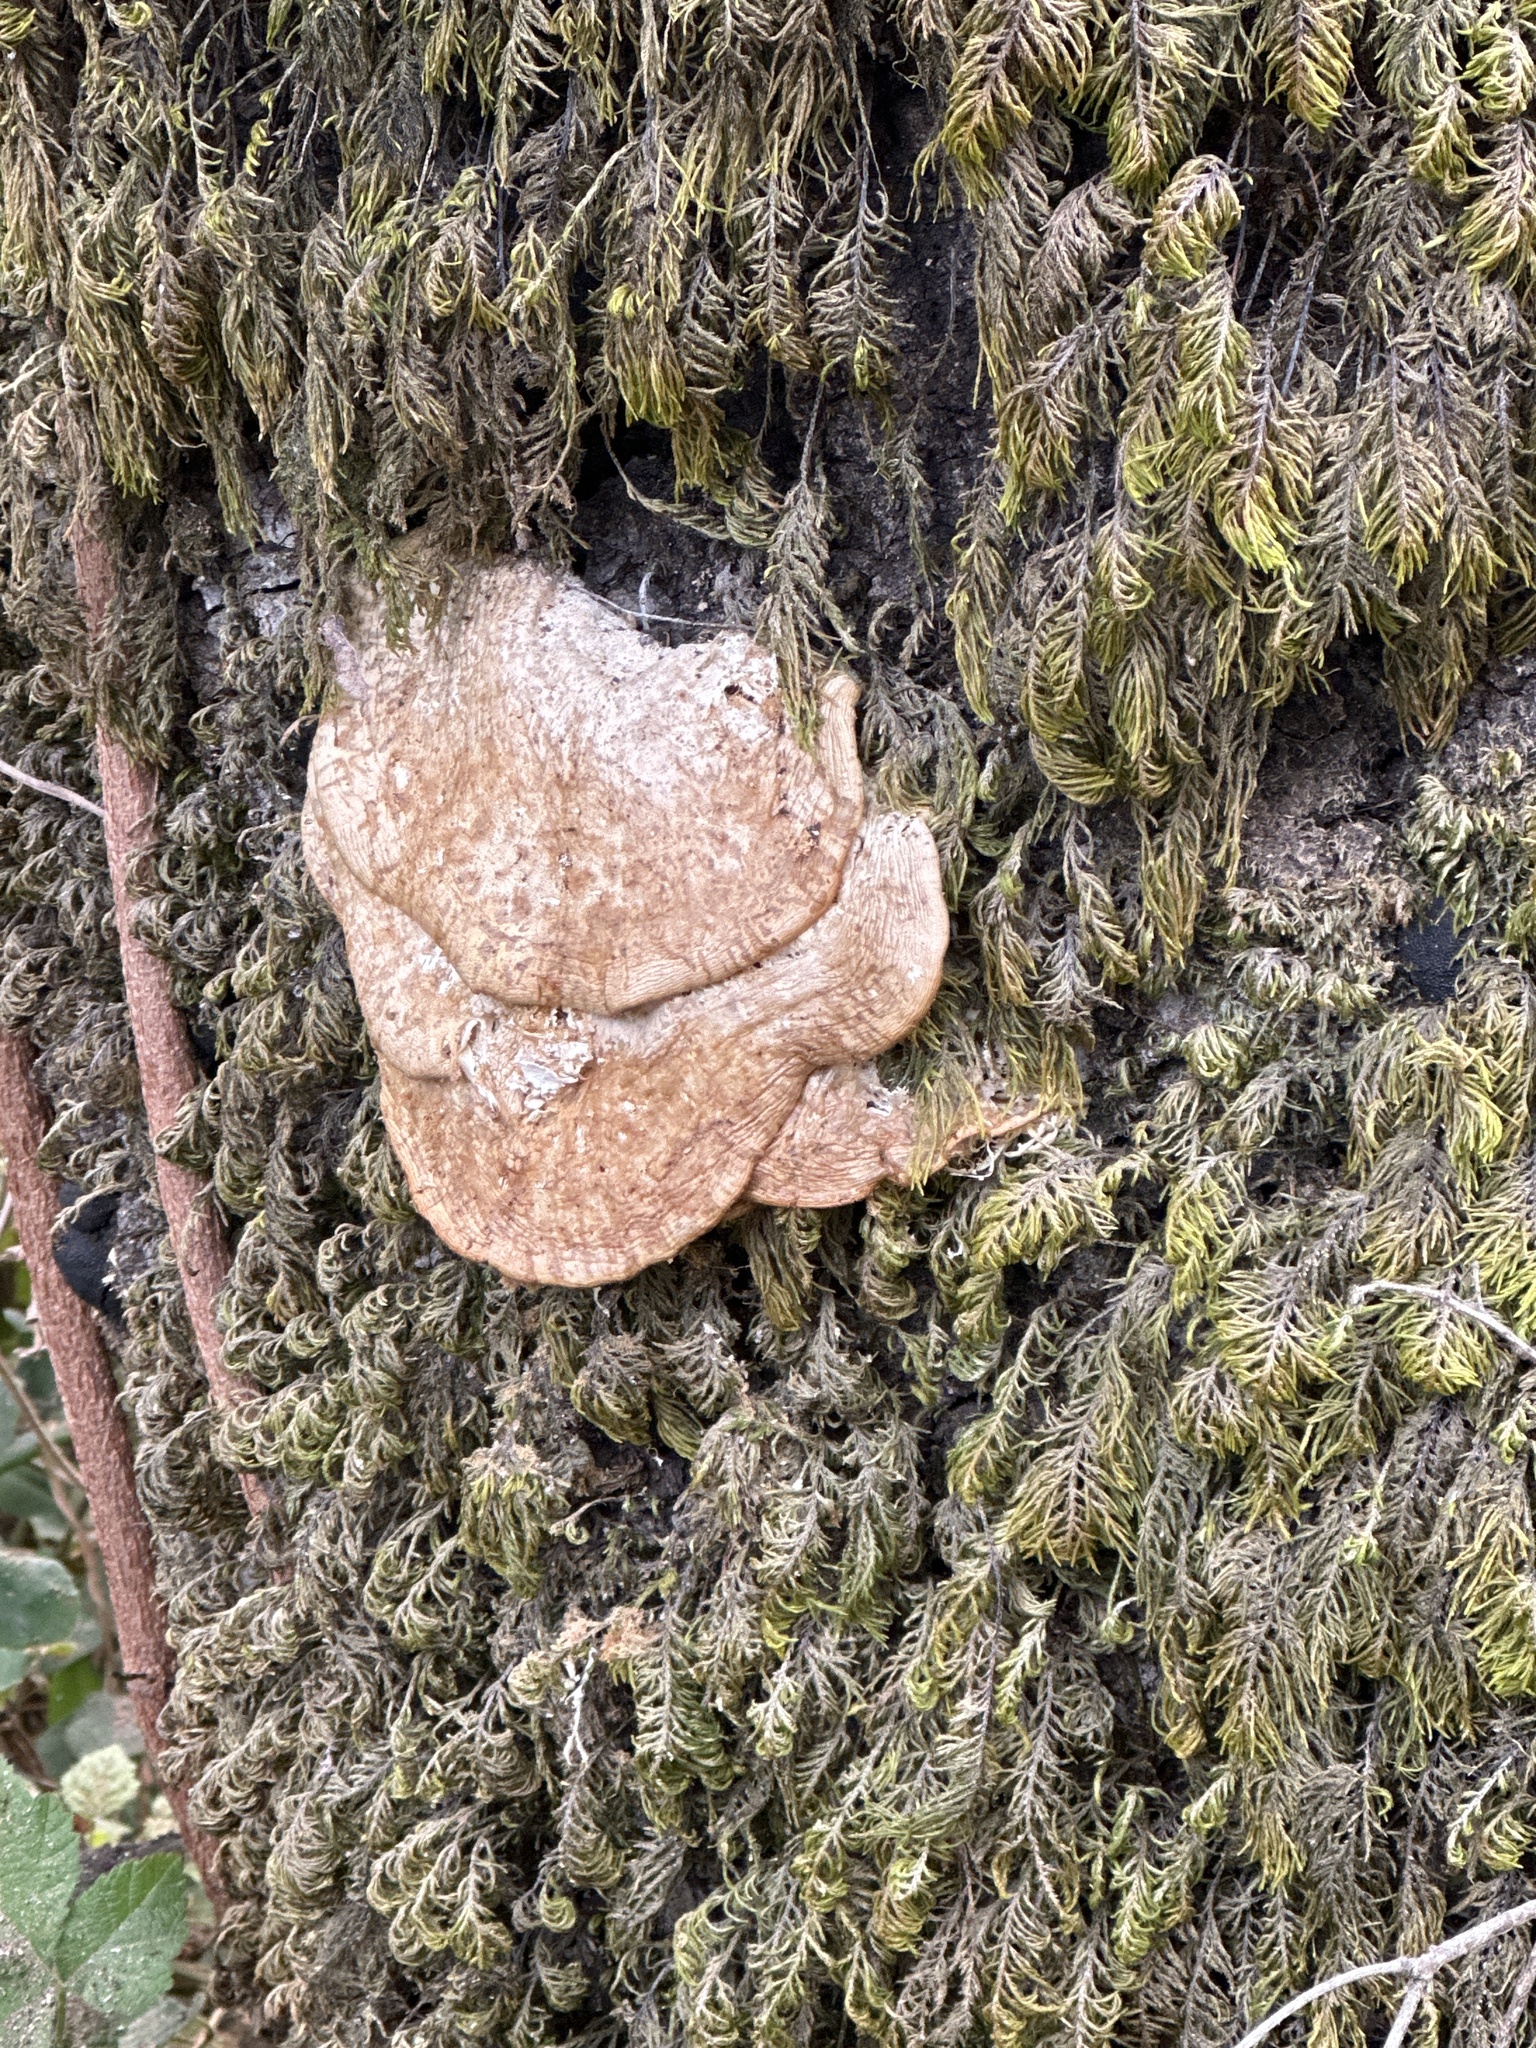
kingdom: Fungi
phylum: Basidiomycota
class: Agaricomycetes
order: Polyporales
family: Polyporaceae
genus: Lenzites
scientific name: Lenzites betulinus
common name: Birch mazegill
